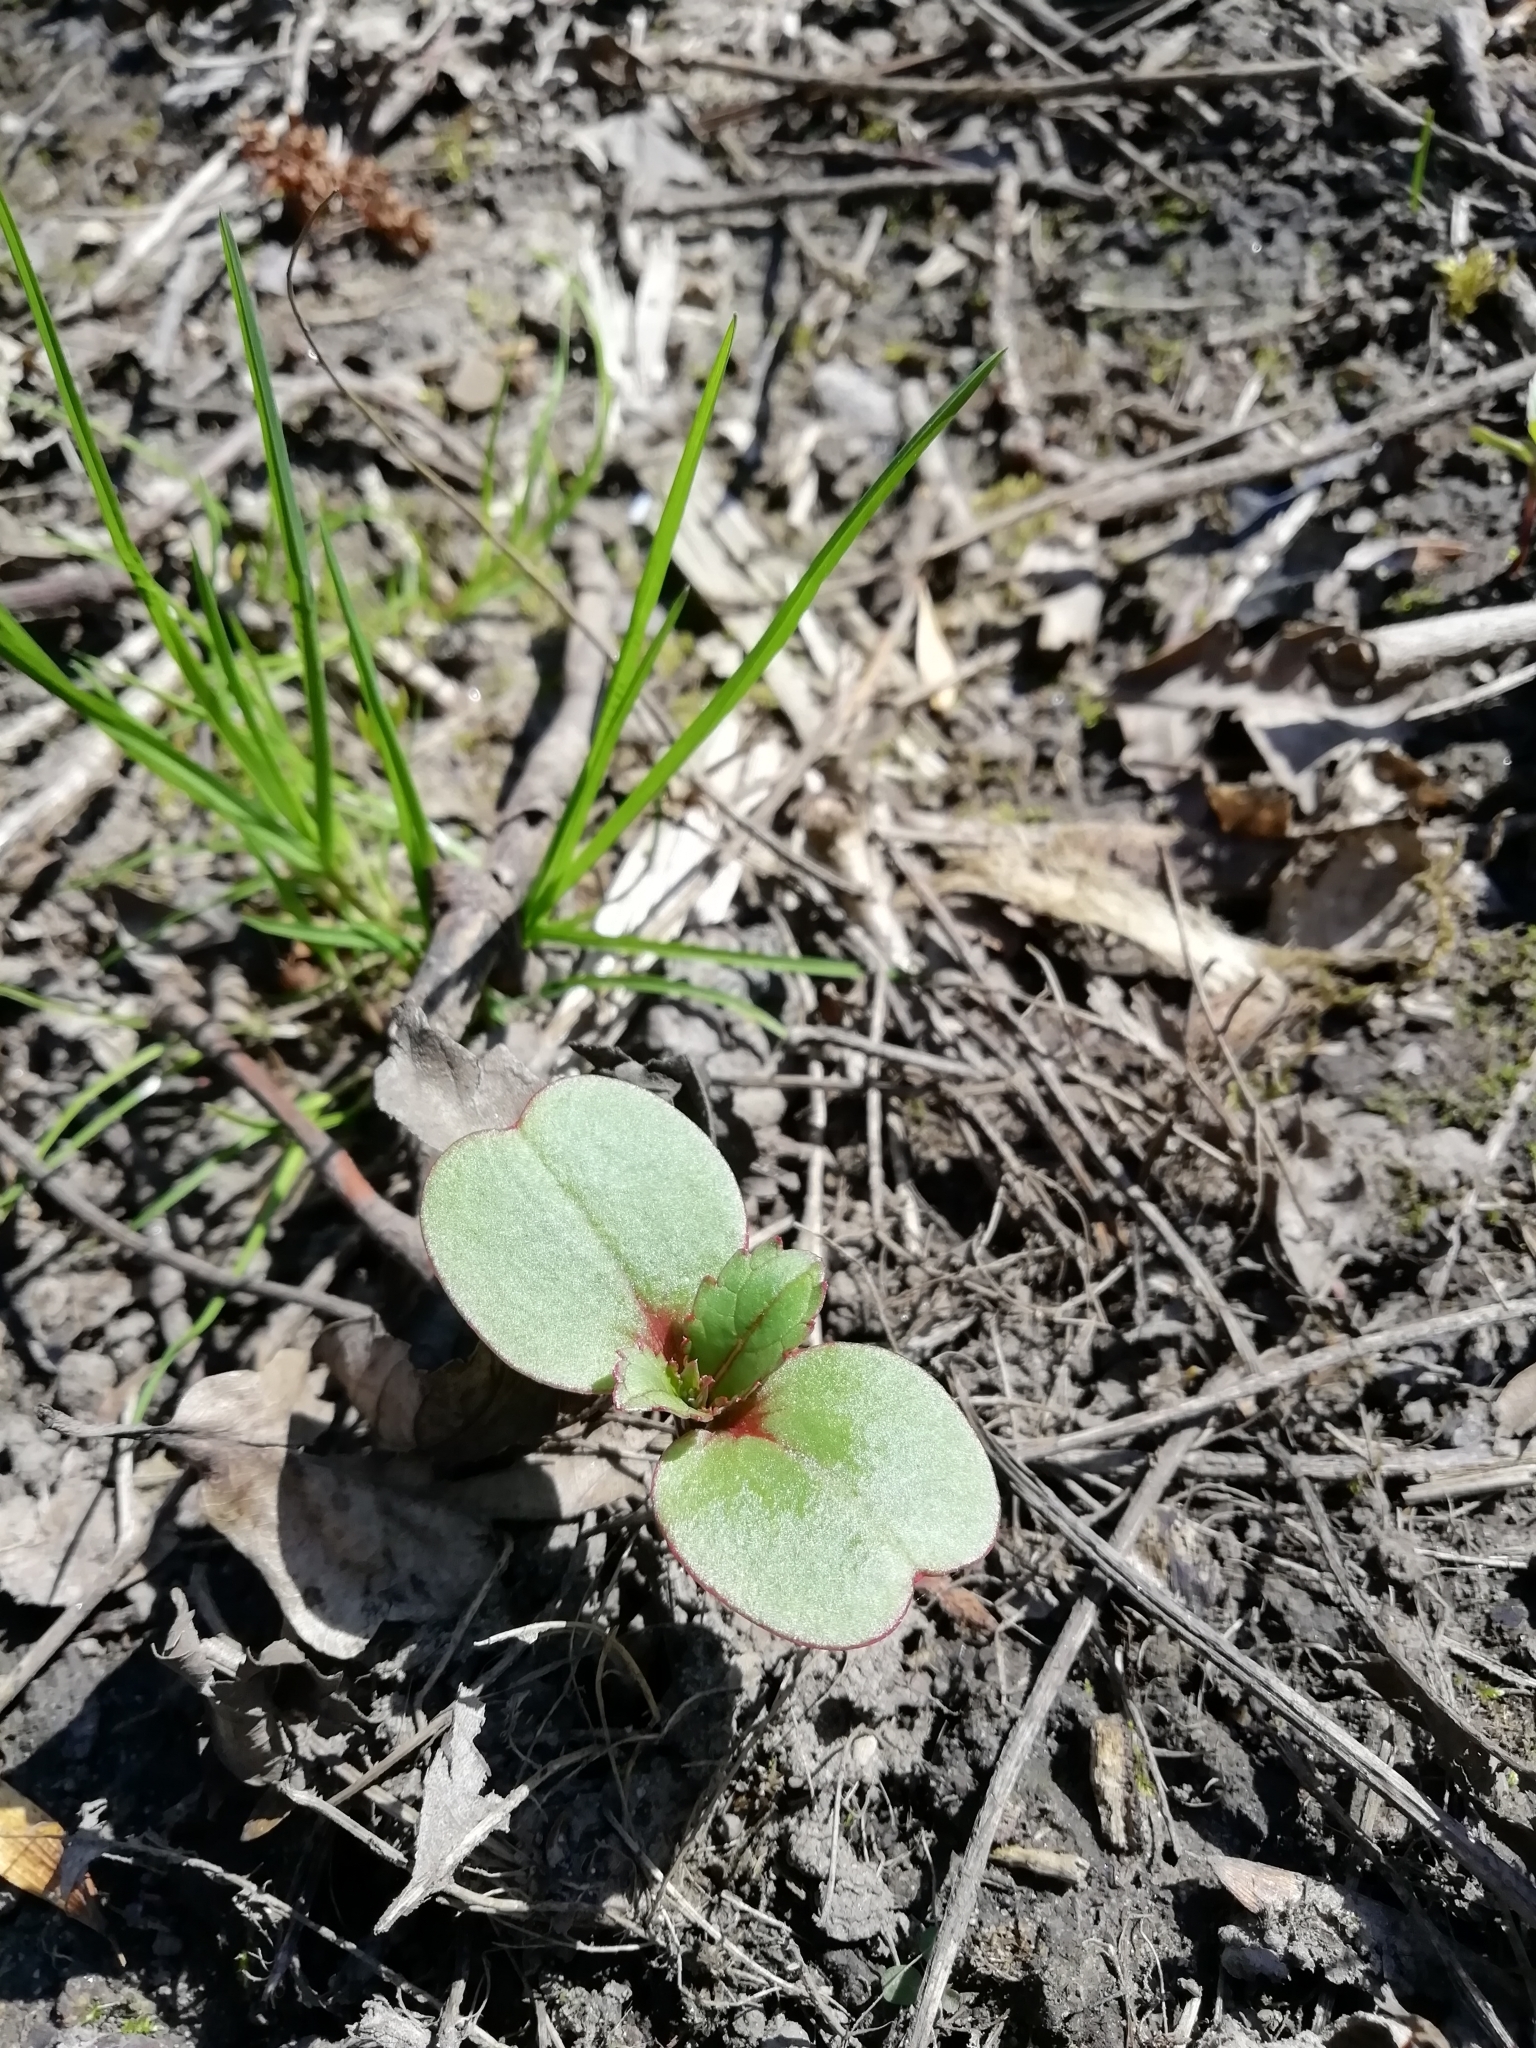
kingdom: Plantae
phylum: Tracheophyta
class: Magnoliopsida
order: Ericales
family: Balsaminaceae
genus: Impatiens
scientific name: Impatiens glandulifera
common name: Himalayan balsam
